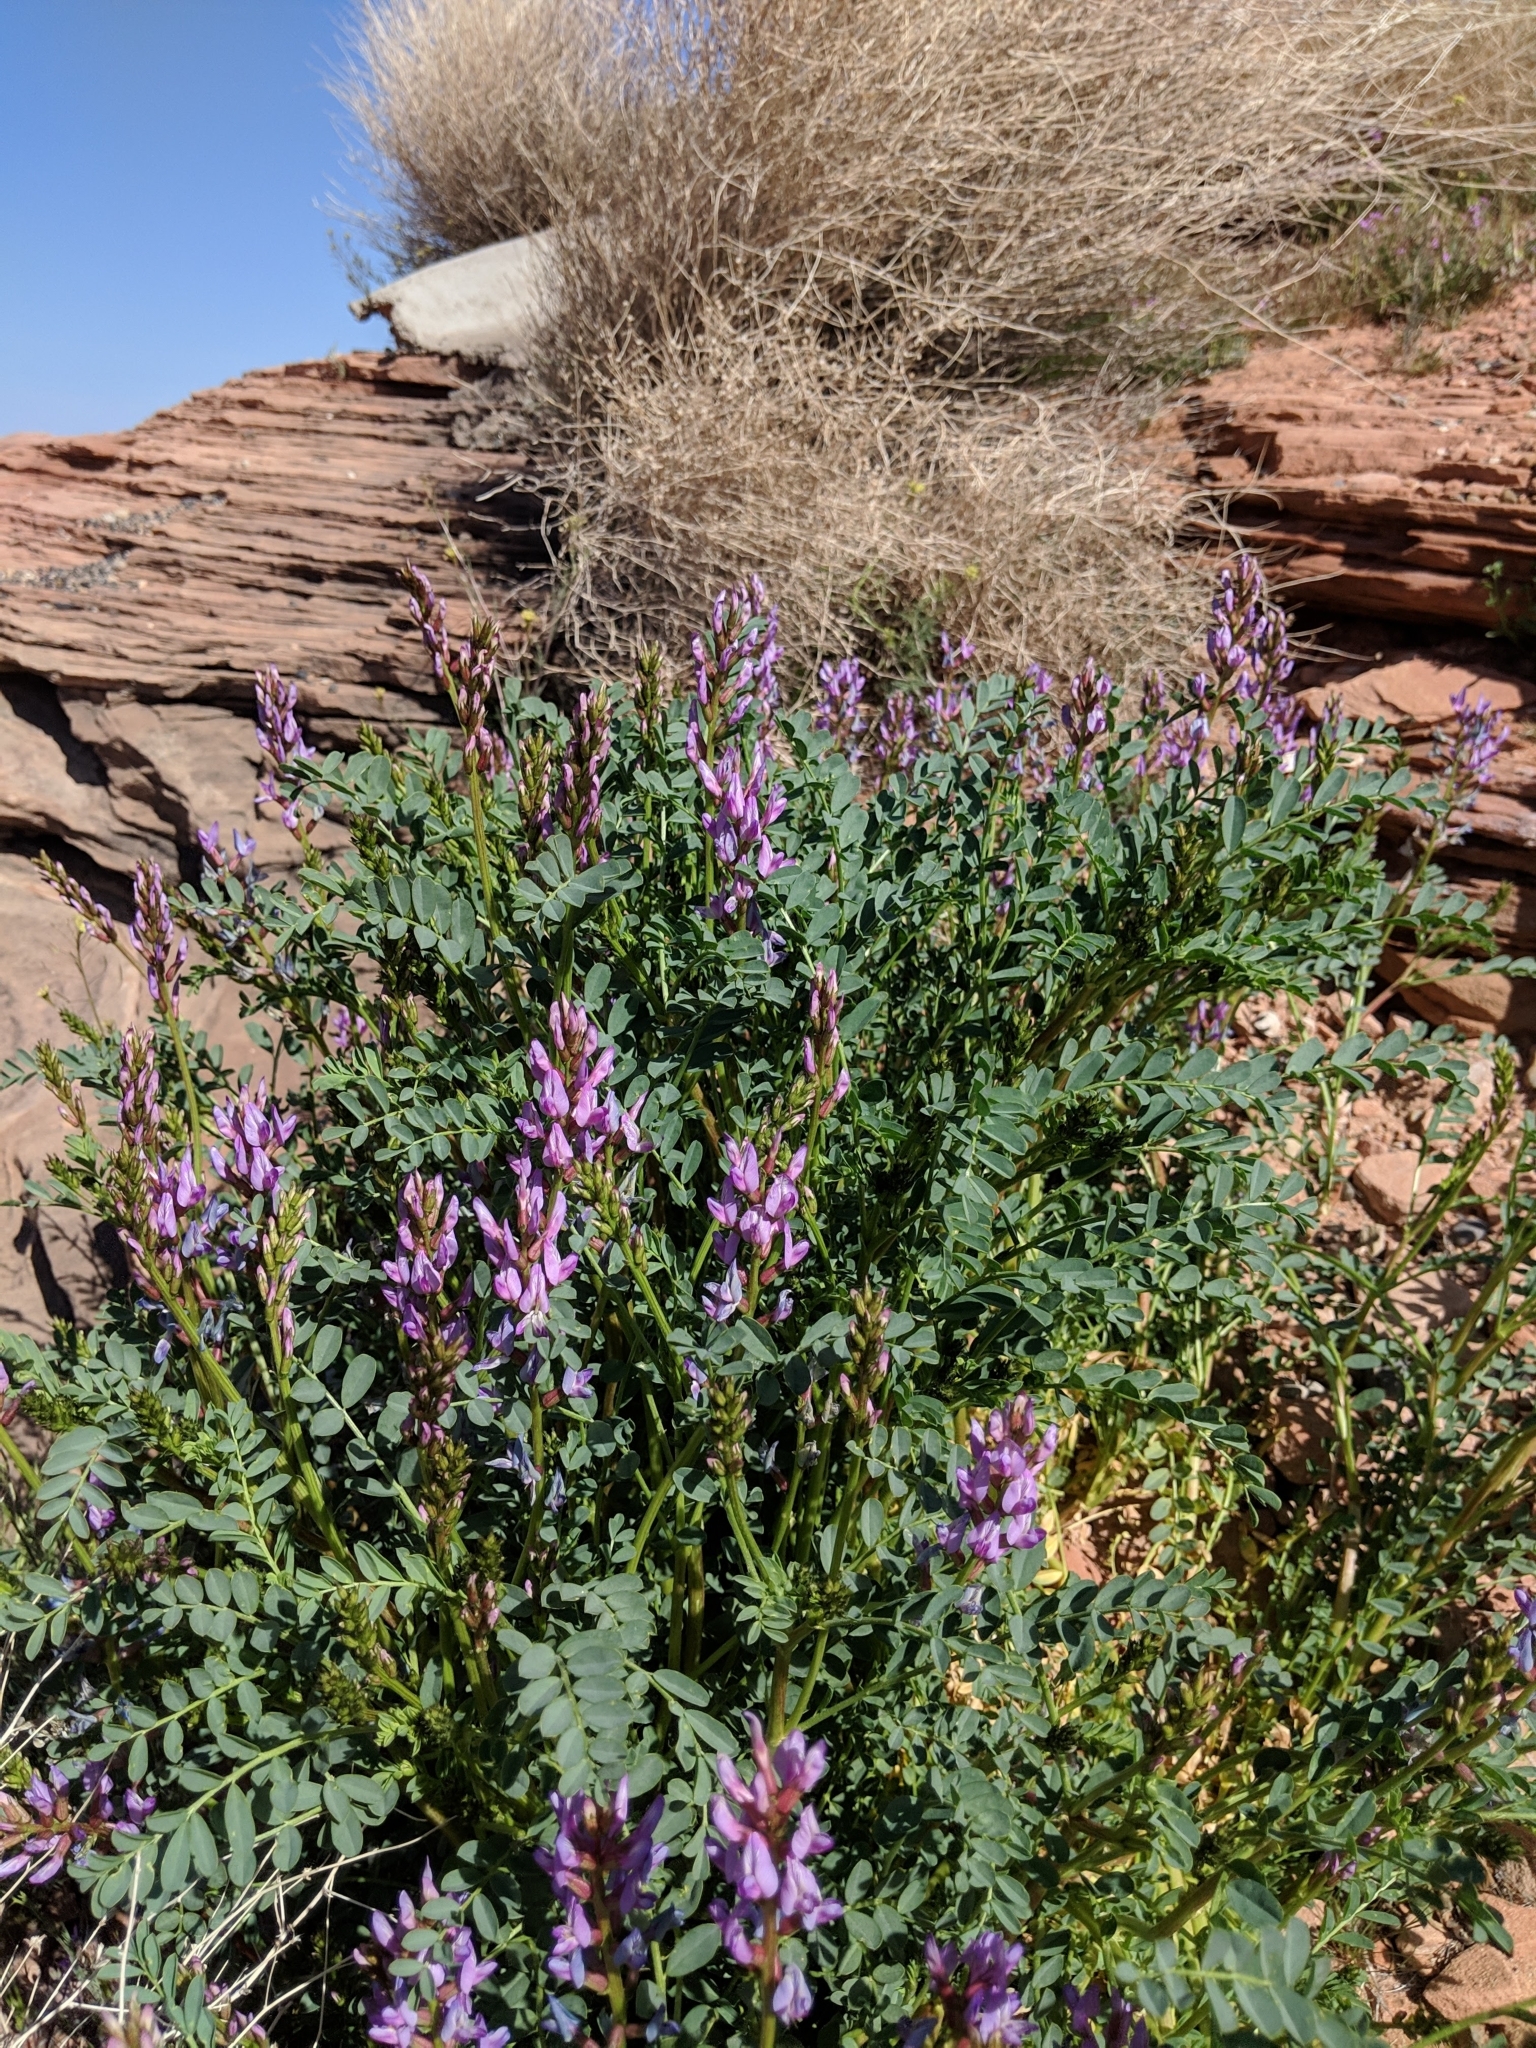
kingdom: Plantae
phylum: Tracheophyta
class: Magnoliopsida
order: Fabales
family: Fabaceae
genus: Astragalus
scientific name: Astragalus lentiginosus
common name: Freckled milkvetch
